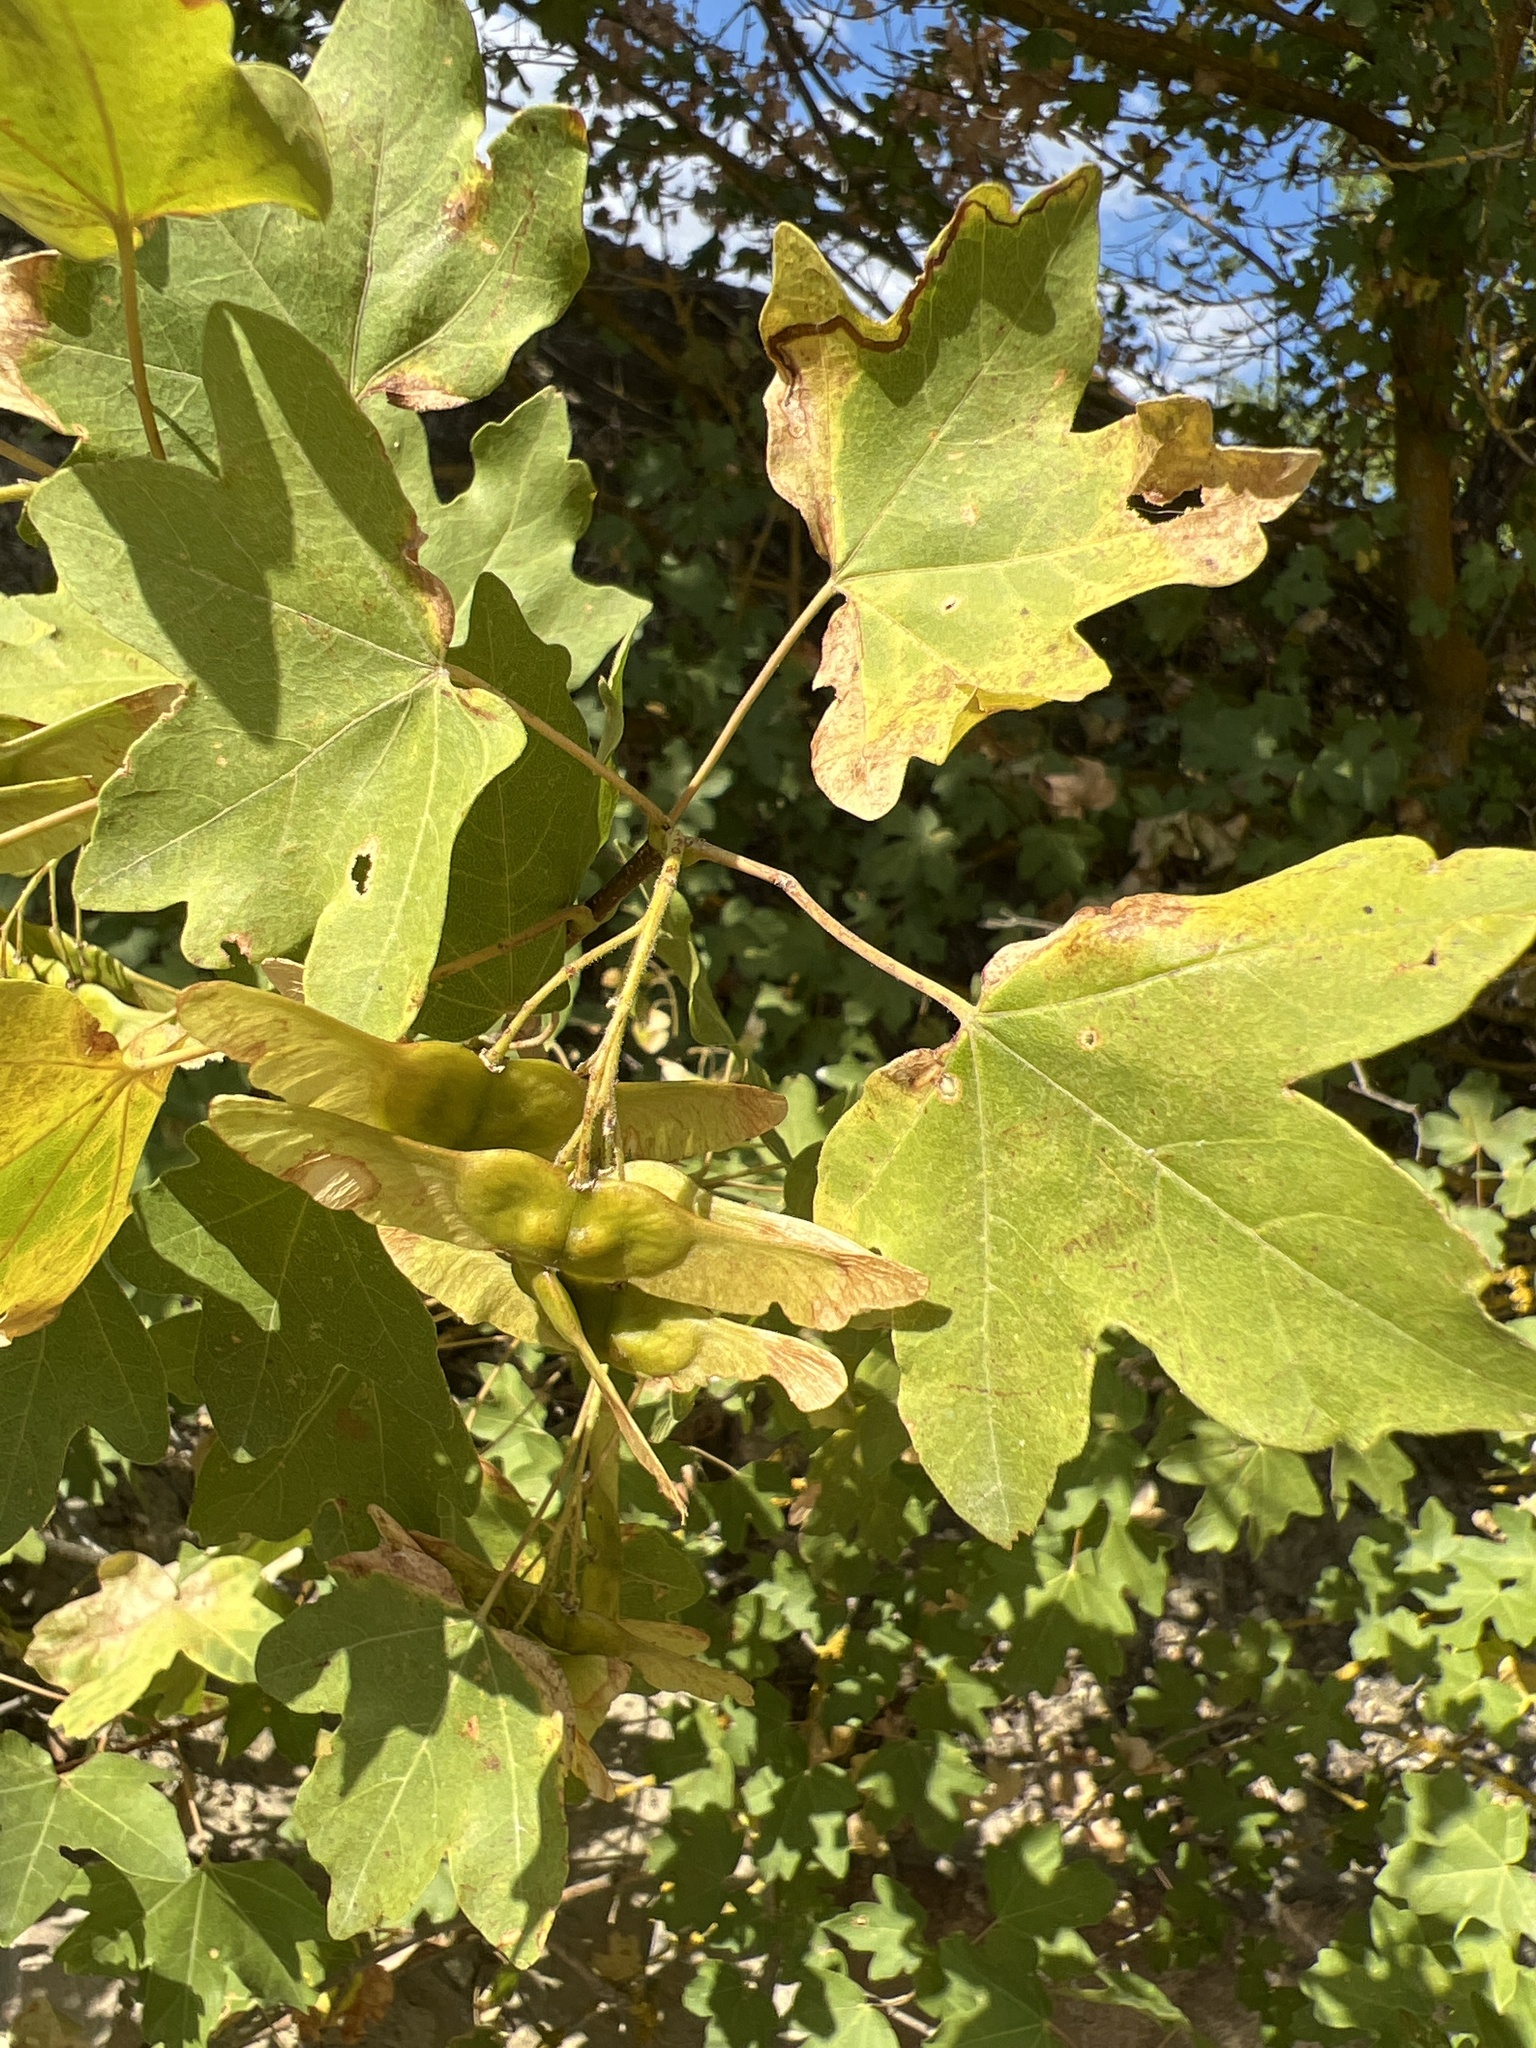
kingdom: Plantae
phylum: Tracheophyta
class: Magnoliopsida
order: Sapindales
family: Sapindaceae
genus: Acer
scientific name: Acer campestre
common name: Field maple
